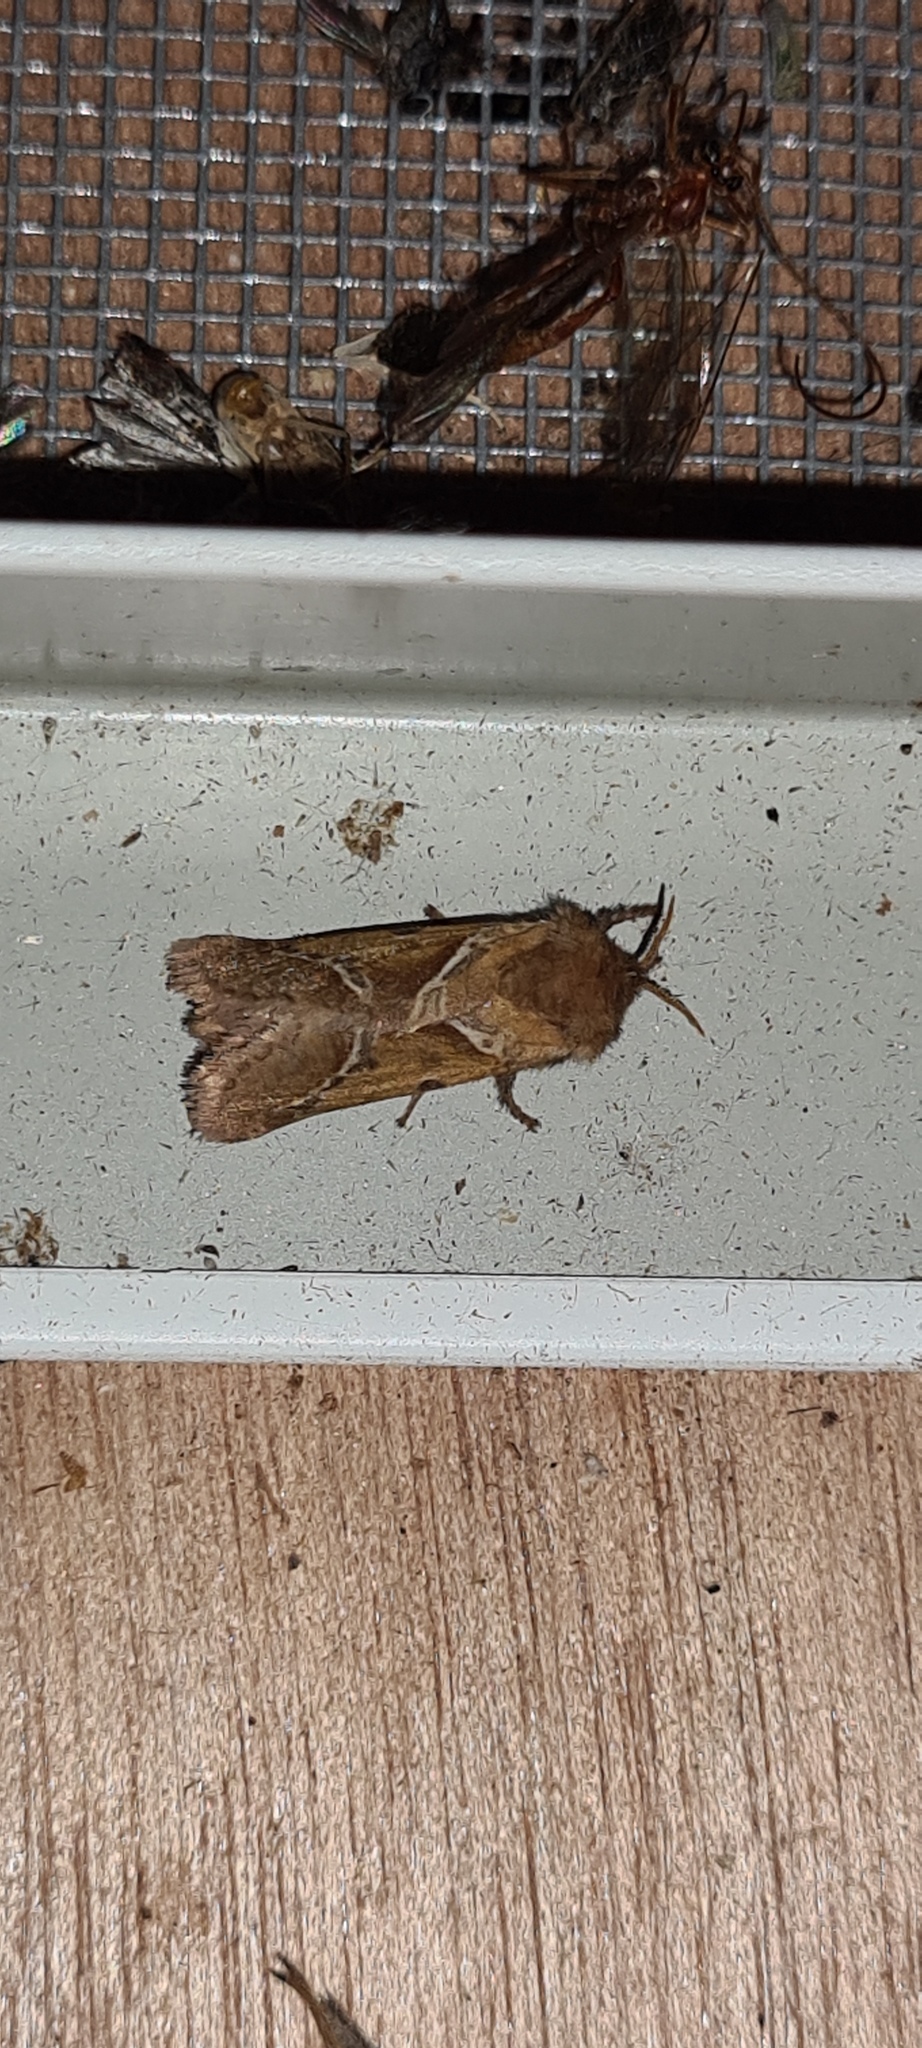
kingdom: Animalia
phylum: Arthropoda
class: Insecta
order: Lepidoptera
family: Hepialidae
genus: Triodia
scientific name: Triodia sylvina
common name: Orange swift
